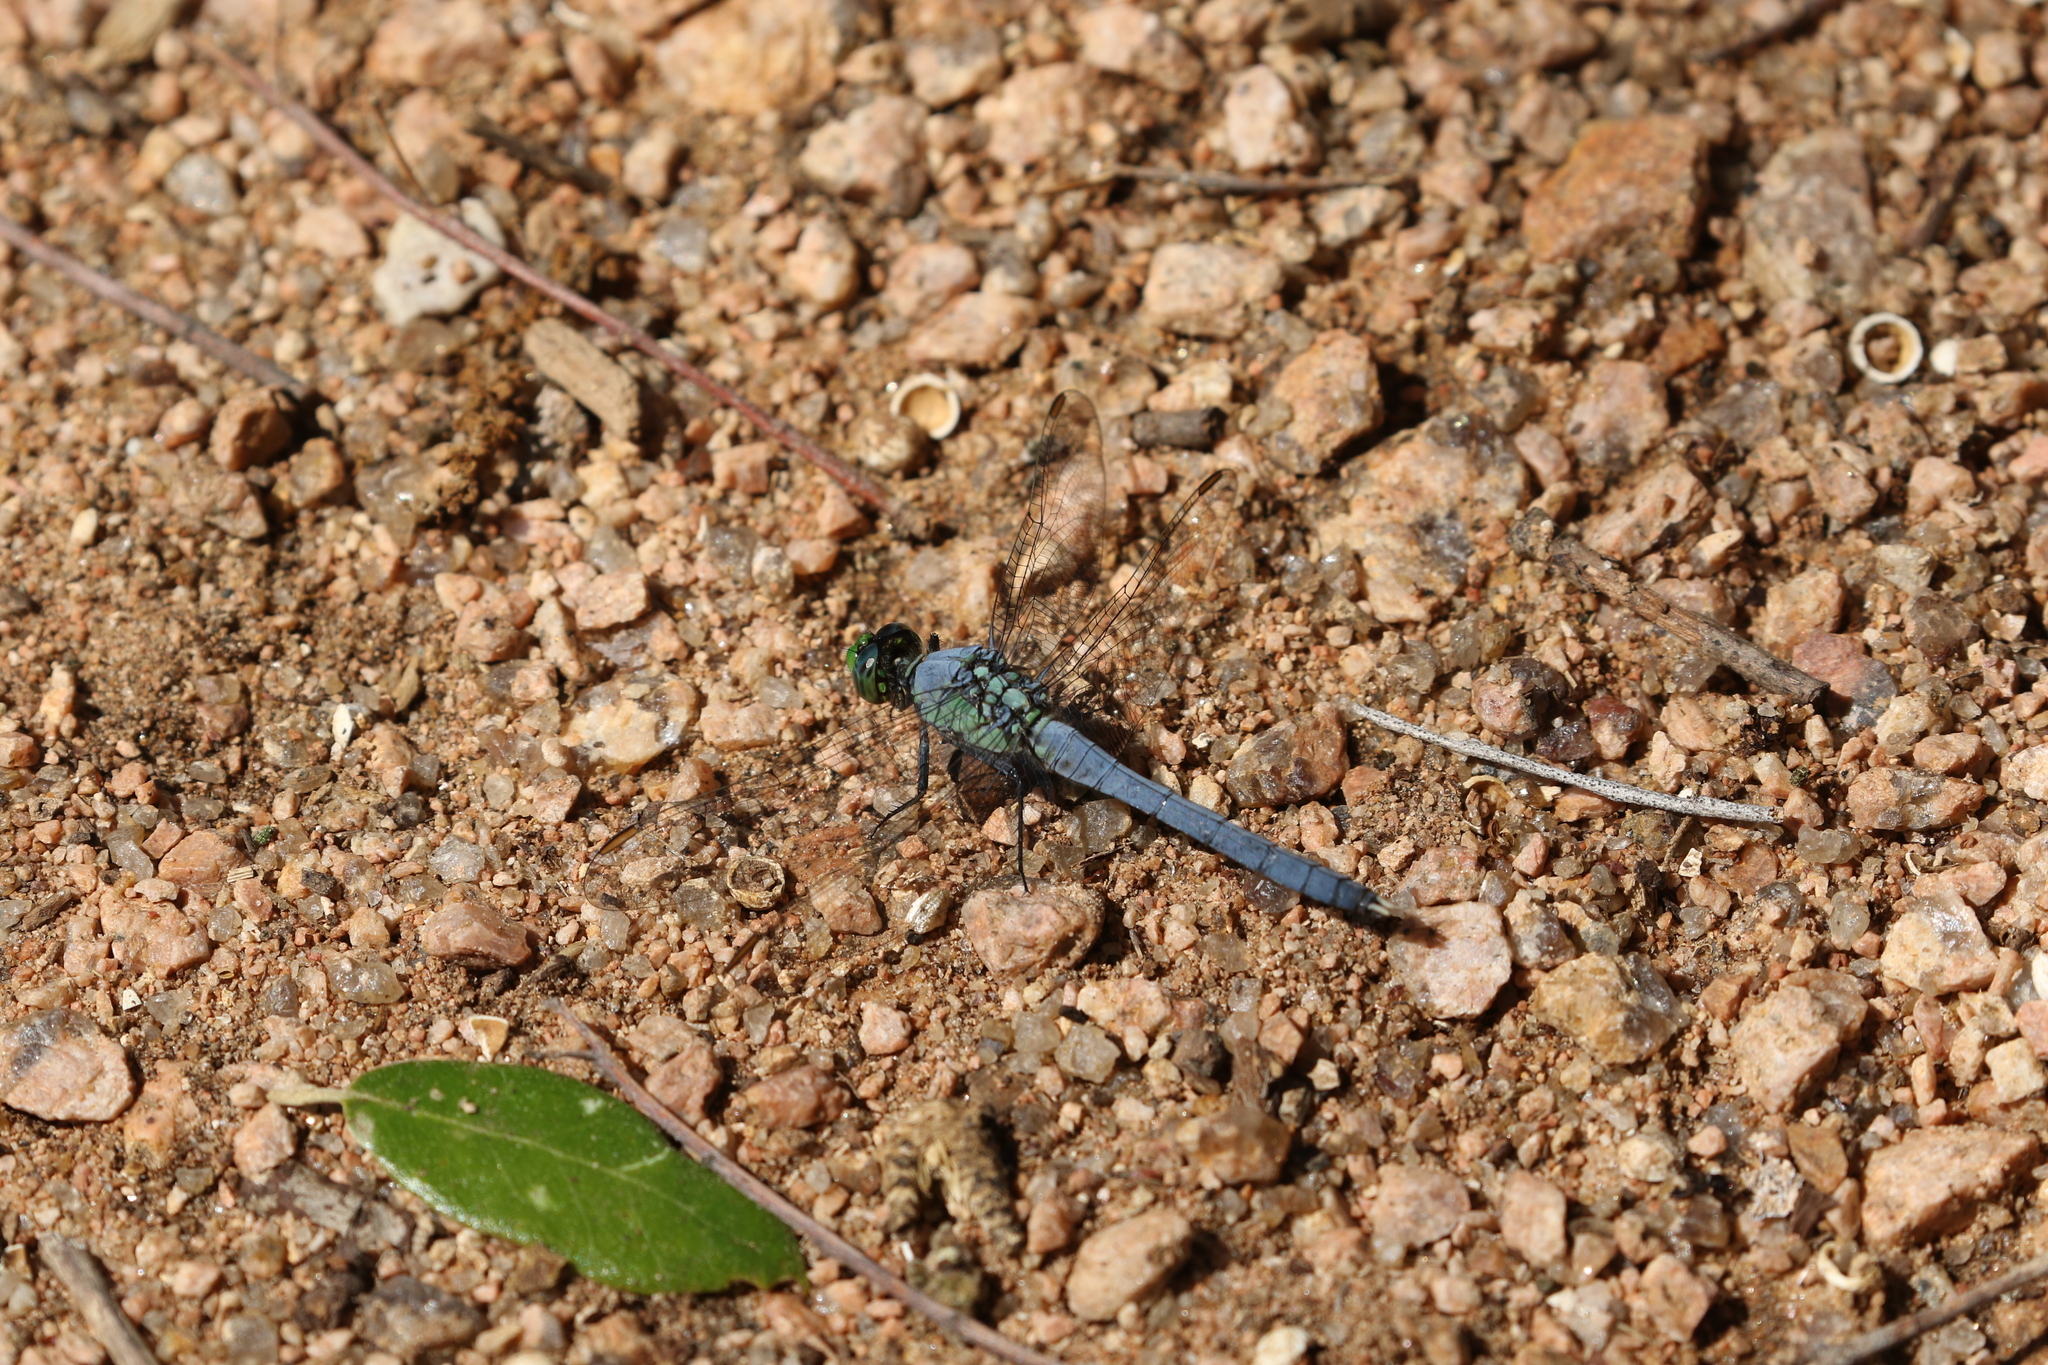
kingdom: Animalia
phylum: Arthropoda
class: Insecta
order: Odonata
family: Libellulidae
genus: Erythemis
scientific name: Erythemis simplicicollis
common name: Eastern pondhawk
